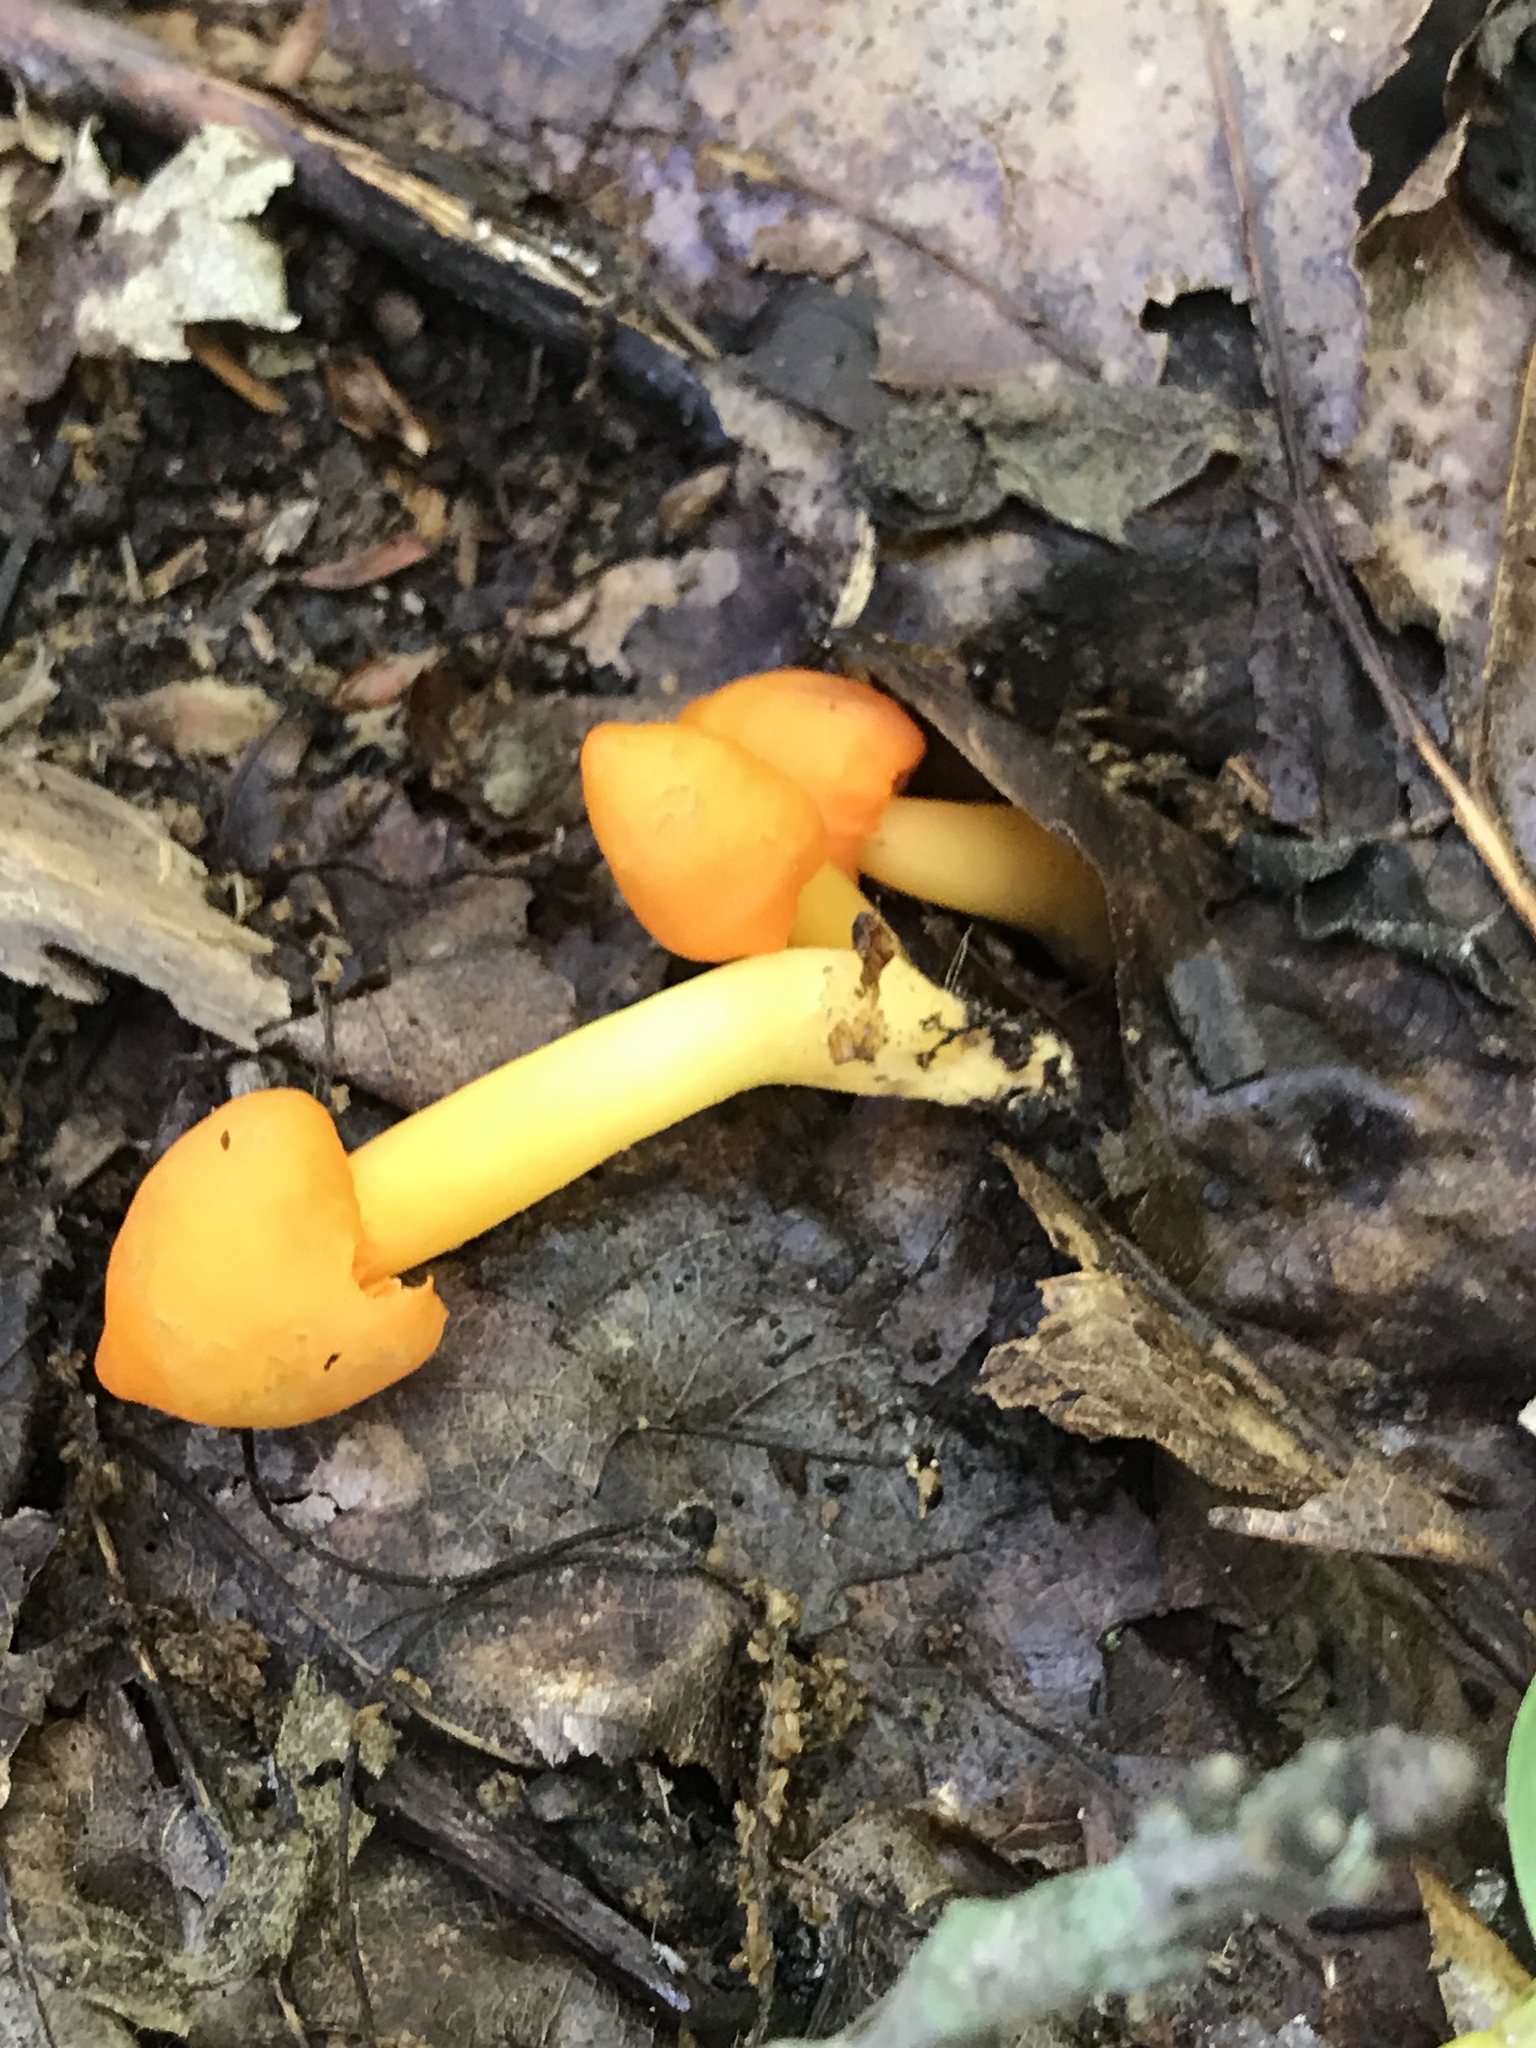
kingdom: Fungi
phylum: Basidiomycota
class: Agaricomycetes
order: Agaricales
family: Hygrophoraceae
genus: Humidicutis
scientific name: Humidicutis marginata
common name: Orange gilled waxcap
